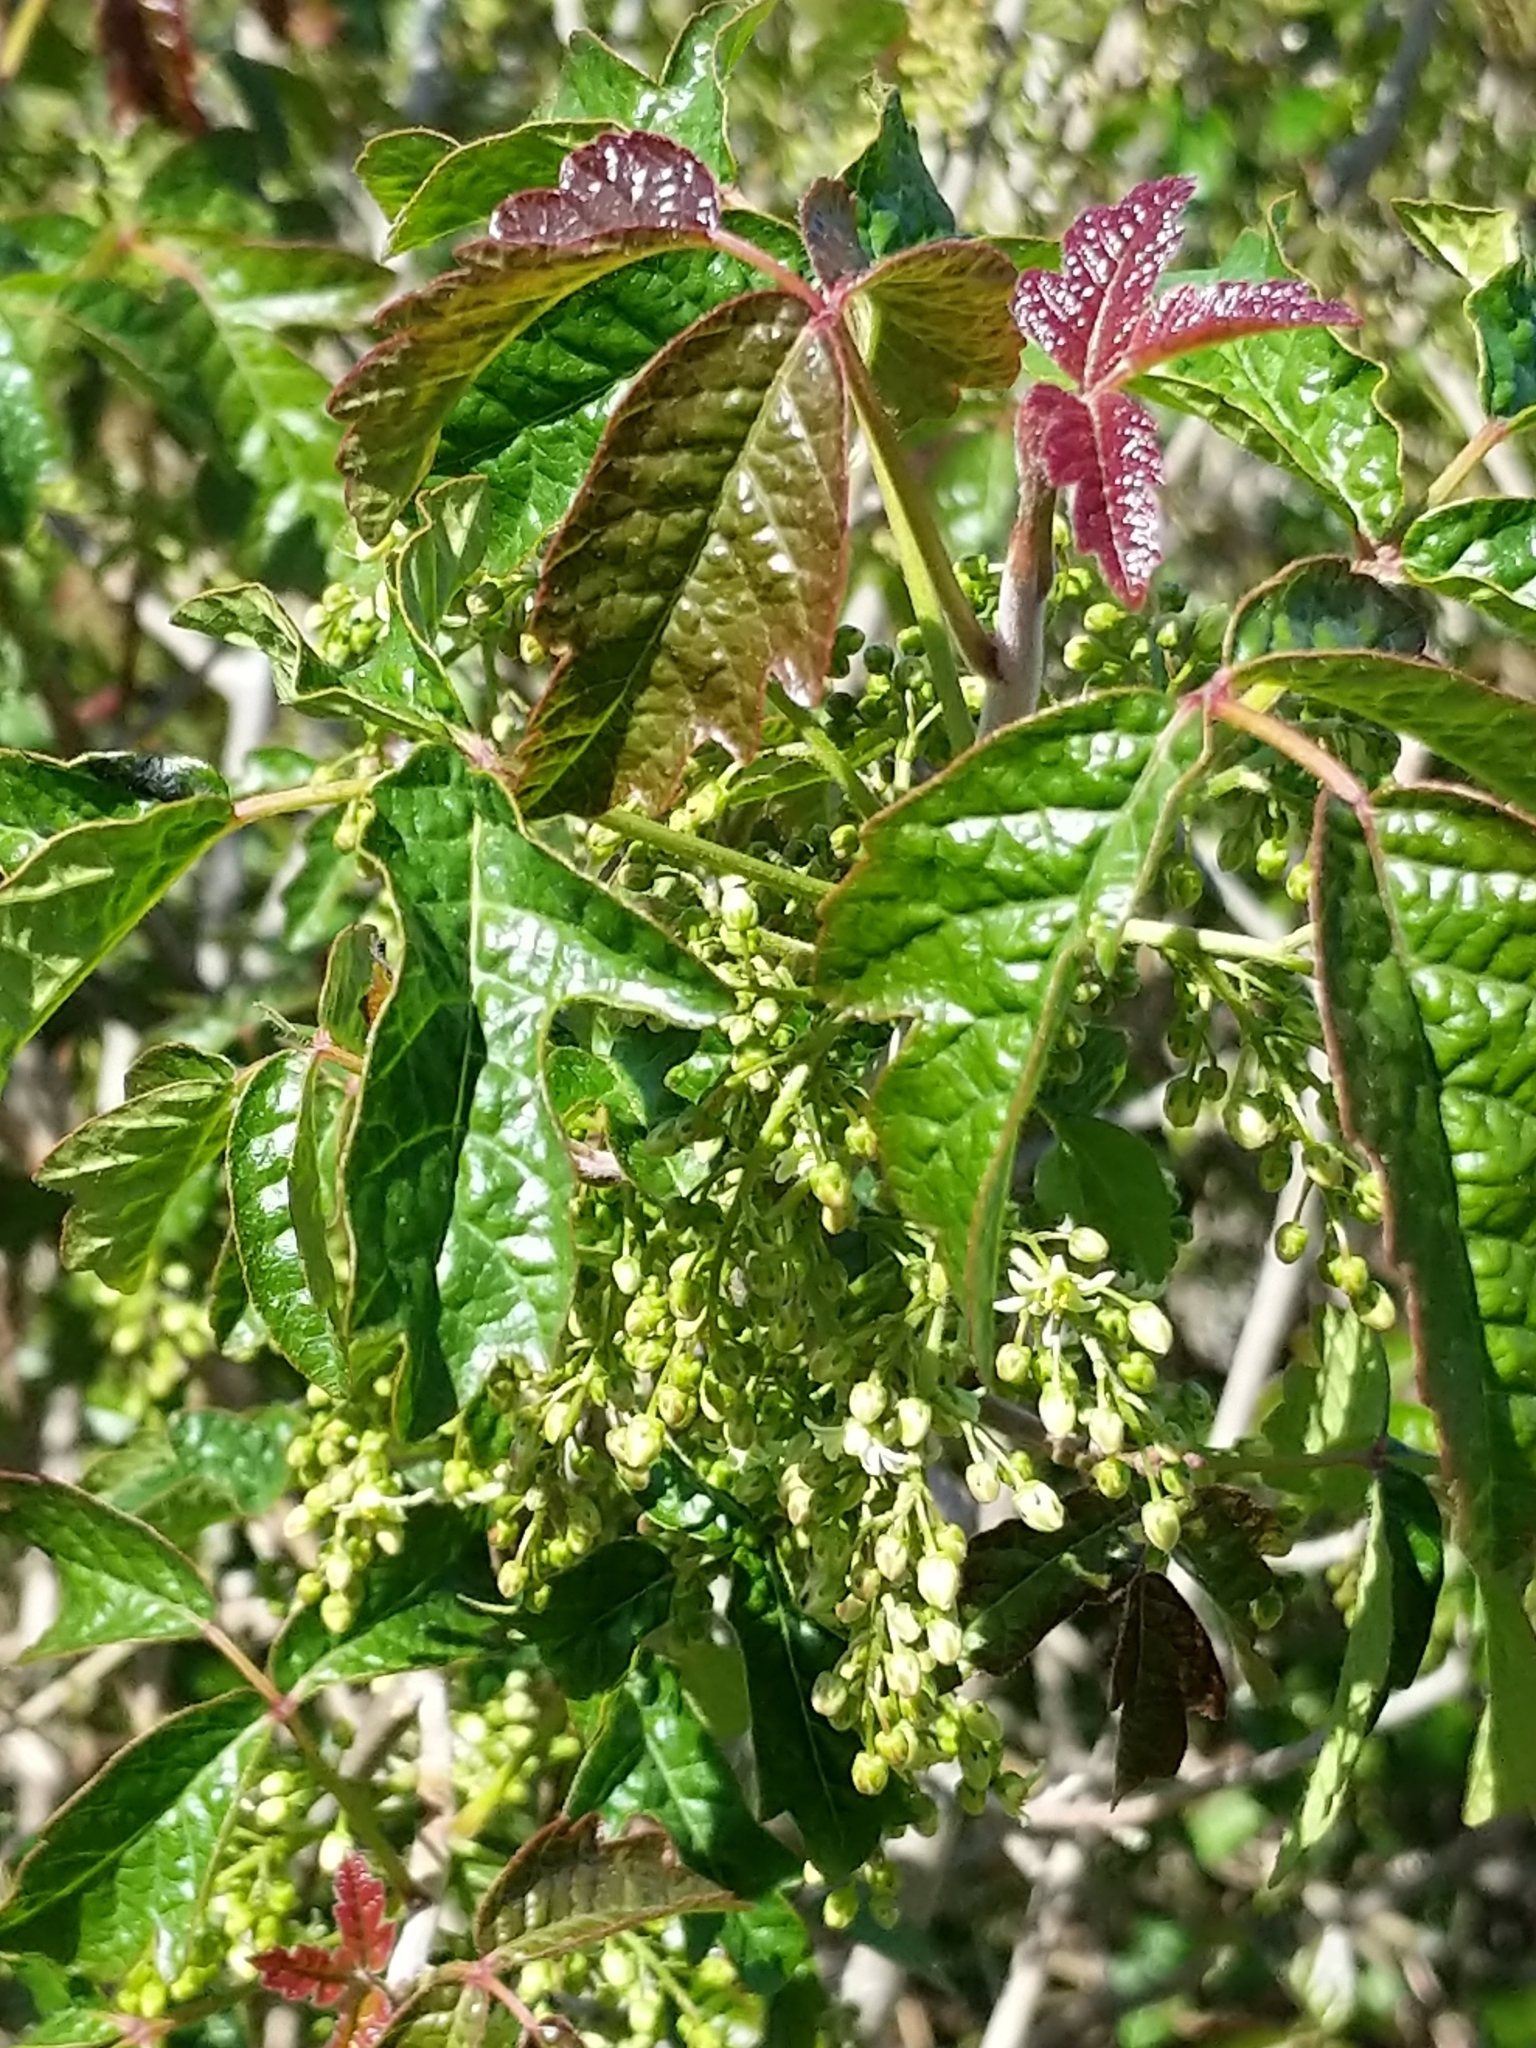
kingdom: Plantae
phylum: Tracheophyta
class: Magnoliopsida
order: Sapindales
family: Anacardiaceae
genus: Toxicodendron
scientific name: Toxicodendron diversilobum
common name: Pacific poison-oak
